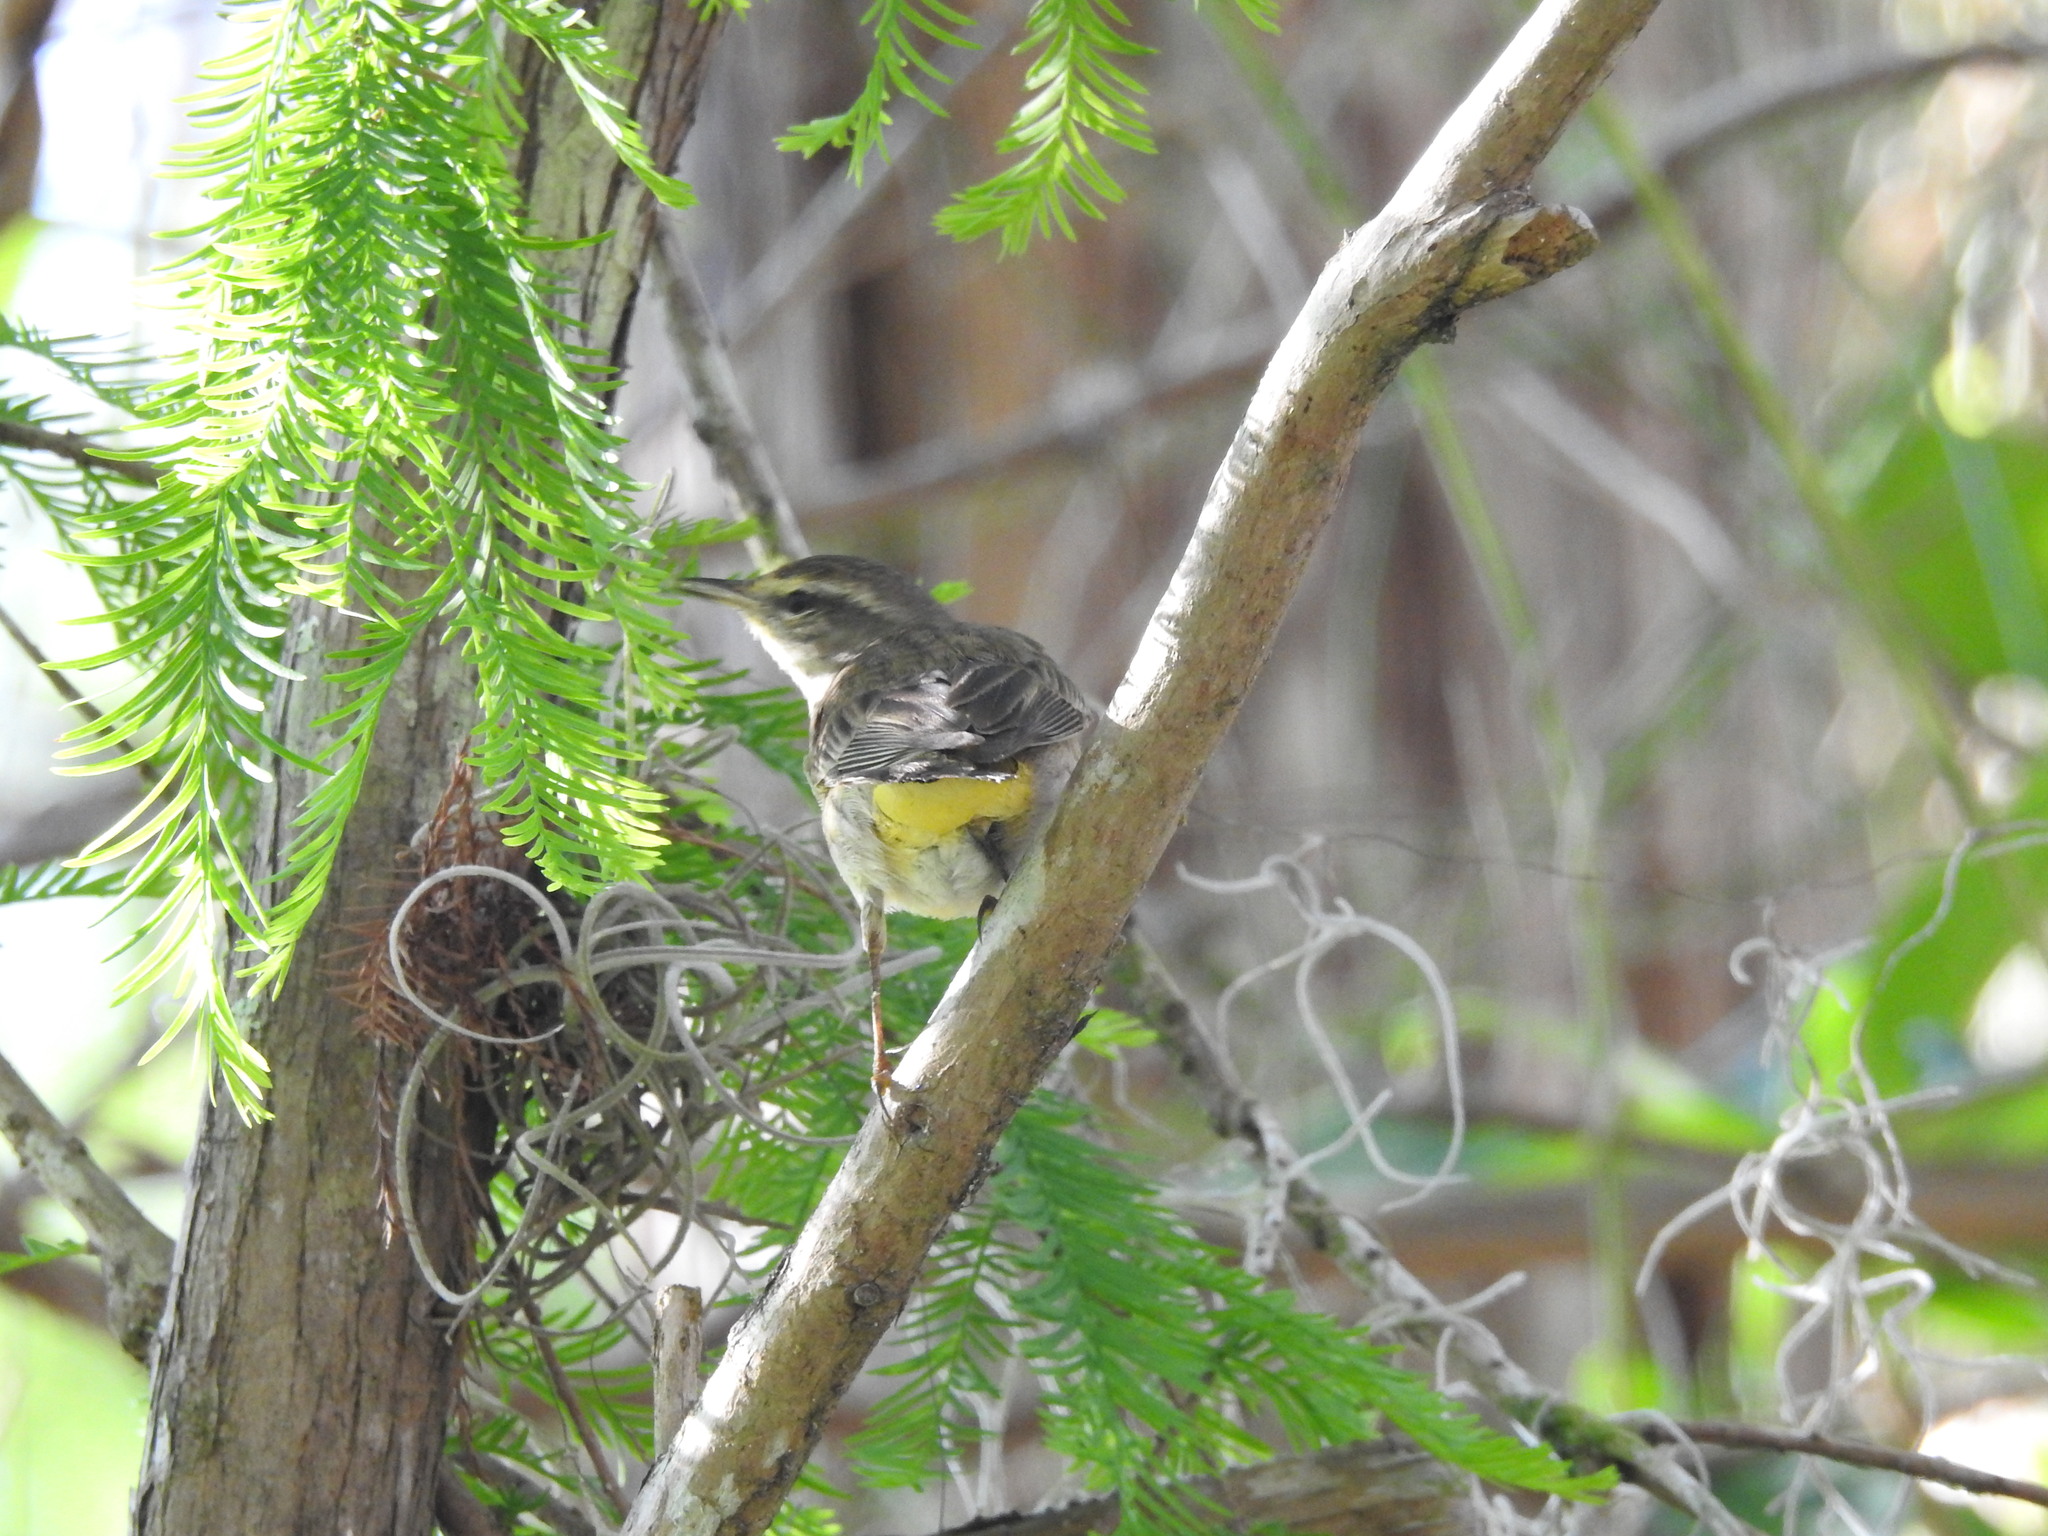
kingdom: Animalia
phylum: Chordata
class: Aves
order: Passeriformes
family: Parulidae
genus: Setophaga
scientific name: Setophaga palmarum
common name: Palm warbler
